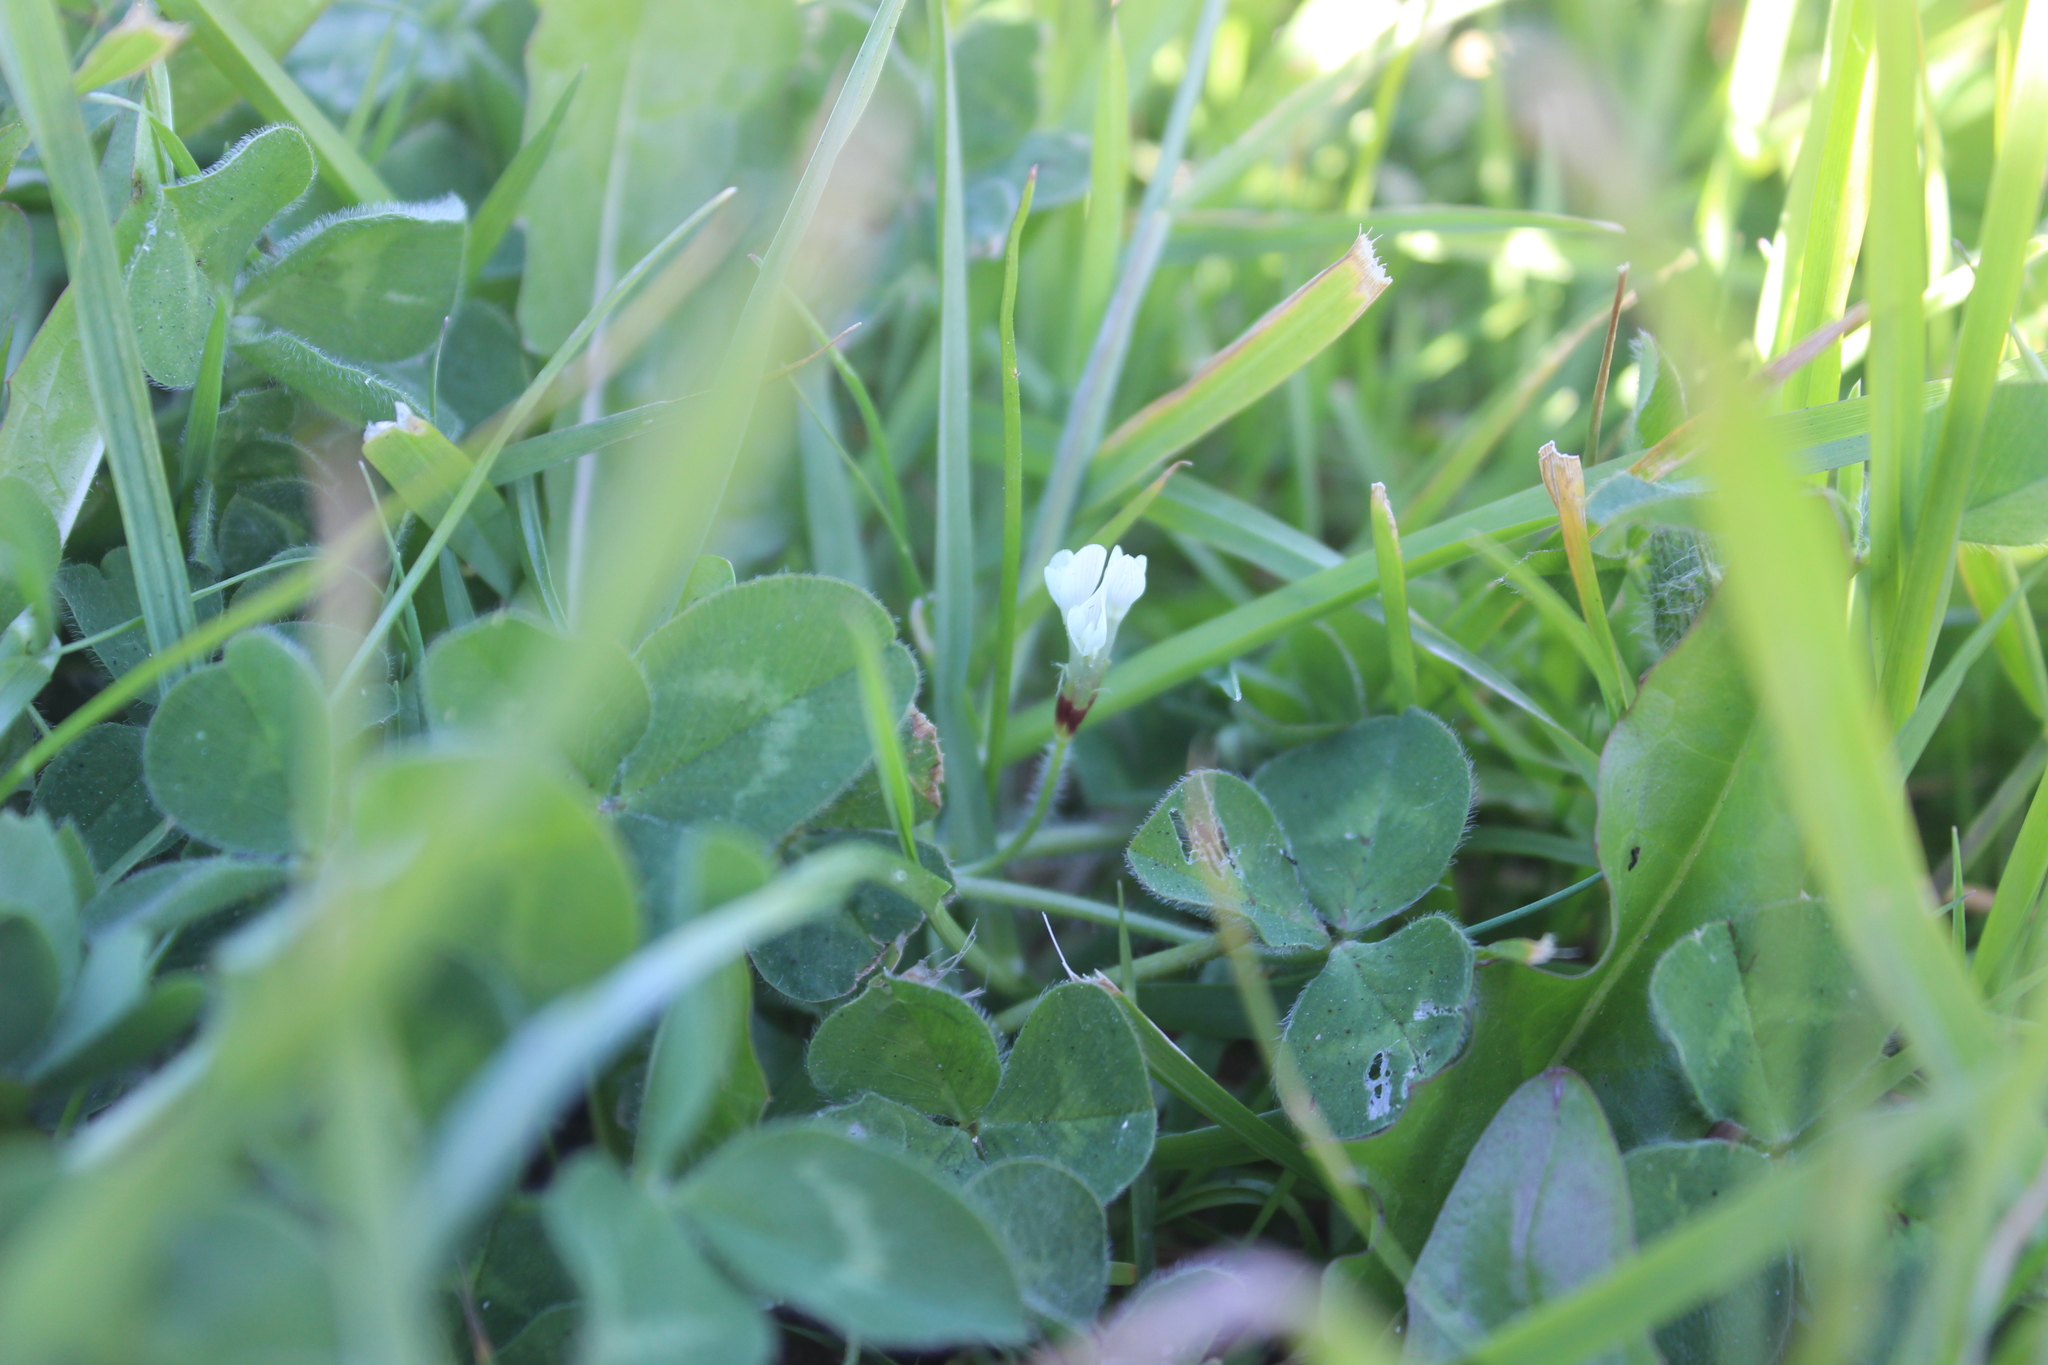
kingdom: Plantae
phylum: Tracheophyta
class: Magnoliopsida
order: Fabales
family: Fabaceae
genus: Trifolium
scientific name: Trifolium subterraneum
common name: Subterranean clover
